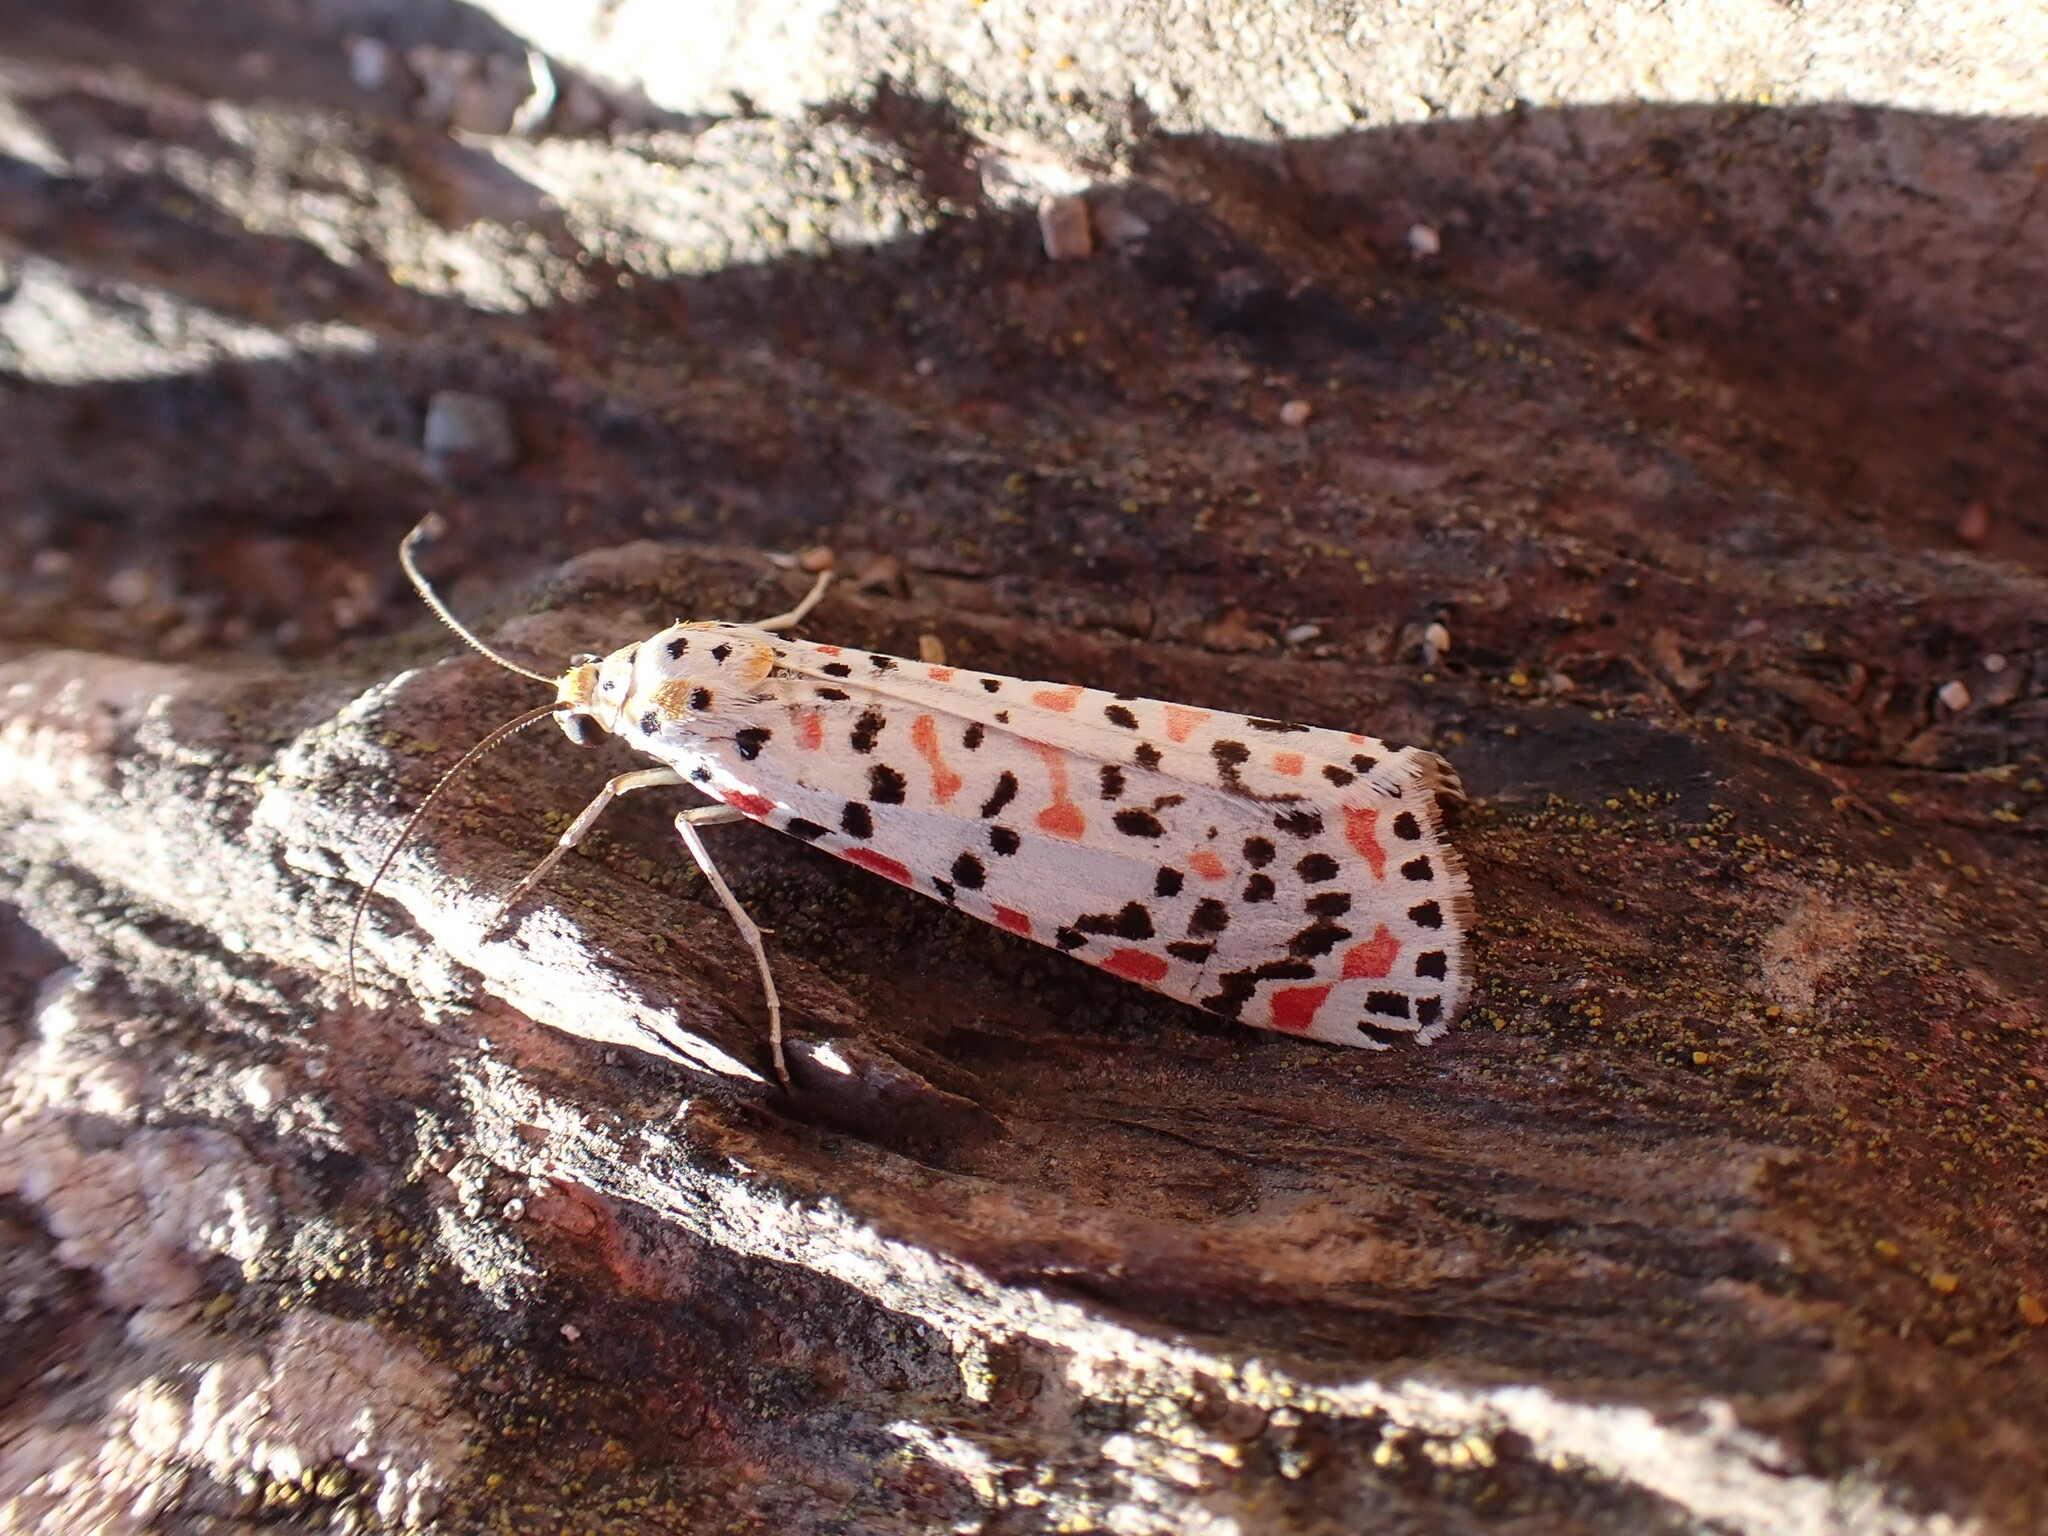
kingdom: Animalia
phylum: Arthropoda
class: Insecta
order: Lepidoptera
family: Erebidae
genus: Utetheisa
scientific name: Utetheisa pulchella
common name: Crimson speckled
